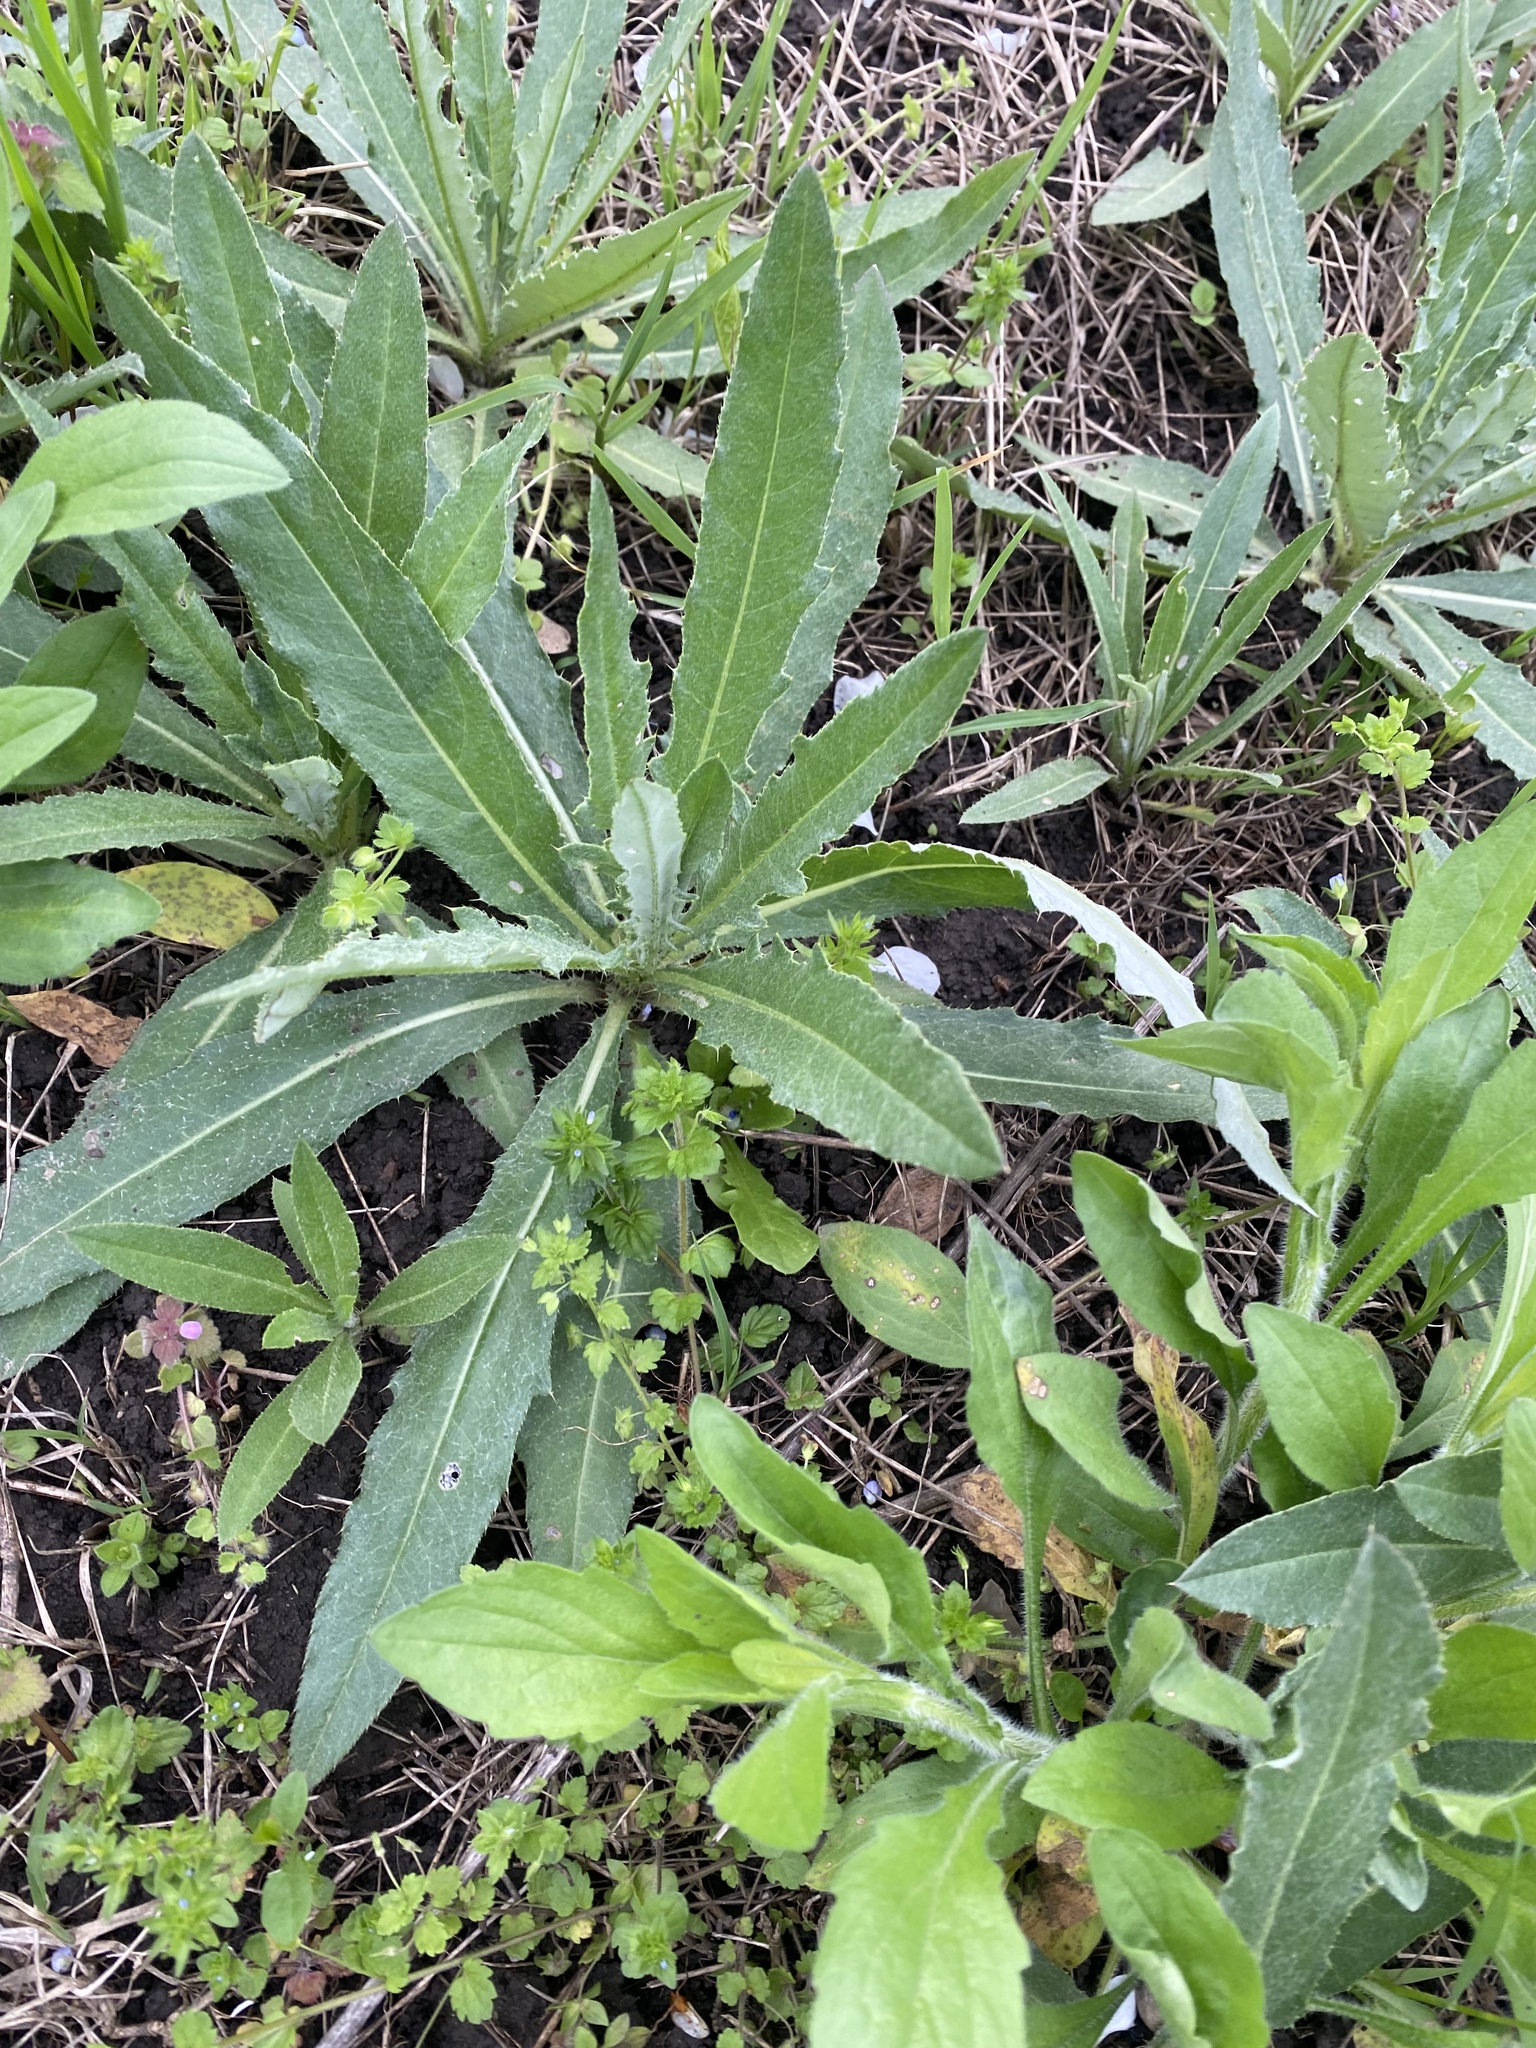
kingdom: Plantae
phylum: Tracheophyta
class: Magnoliopsida
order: Asterales
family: Asteraceae
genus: Cirsium
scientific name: Cirsium arvense
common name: Creeping thistle
